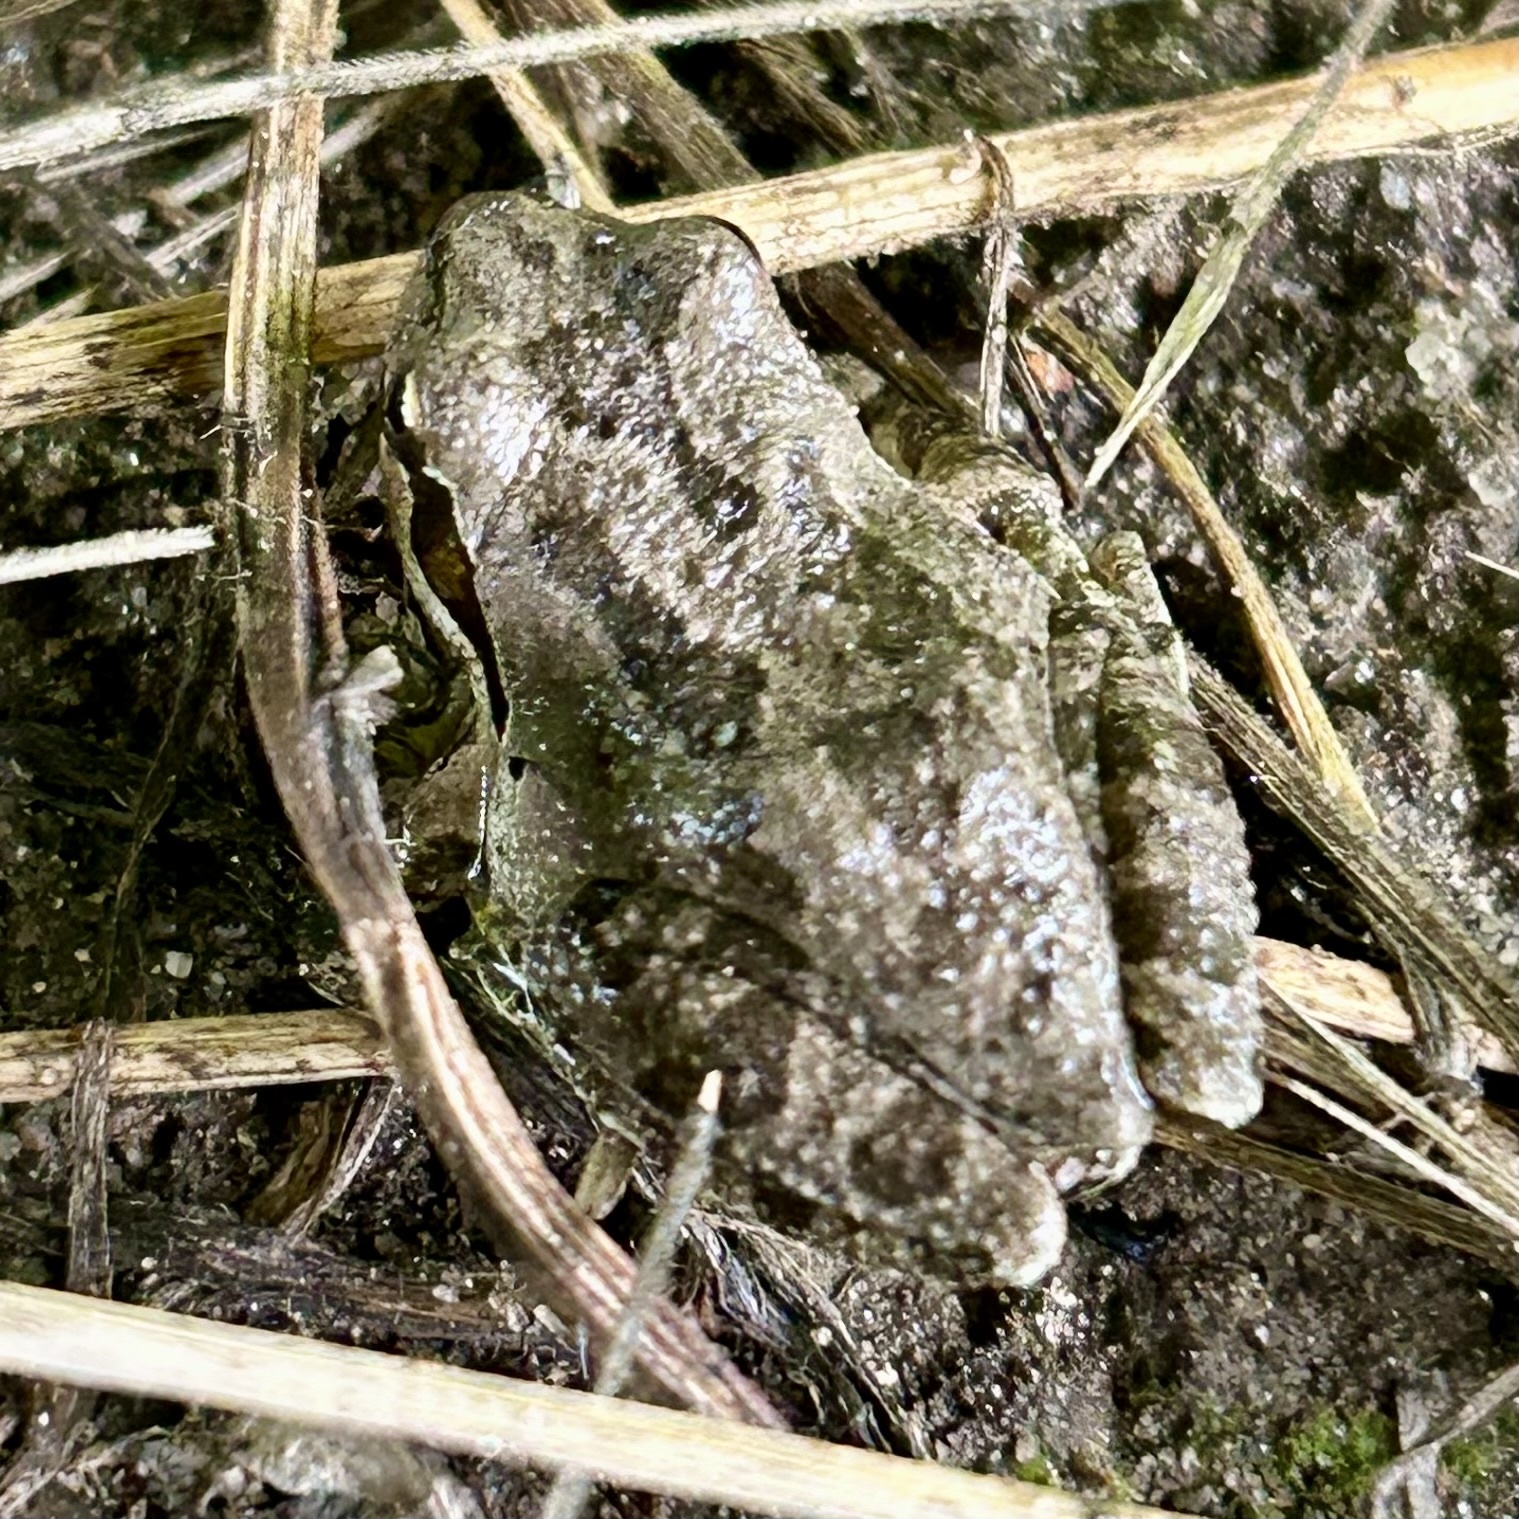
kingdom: Animalia
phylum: Chordata
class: Amphibia
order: Anura
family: Hylidae
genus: Pseudacris
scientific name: Pseudacris regilla
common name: Pacific chorus frog
